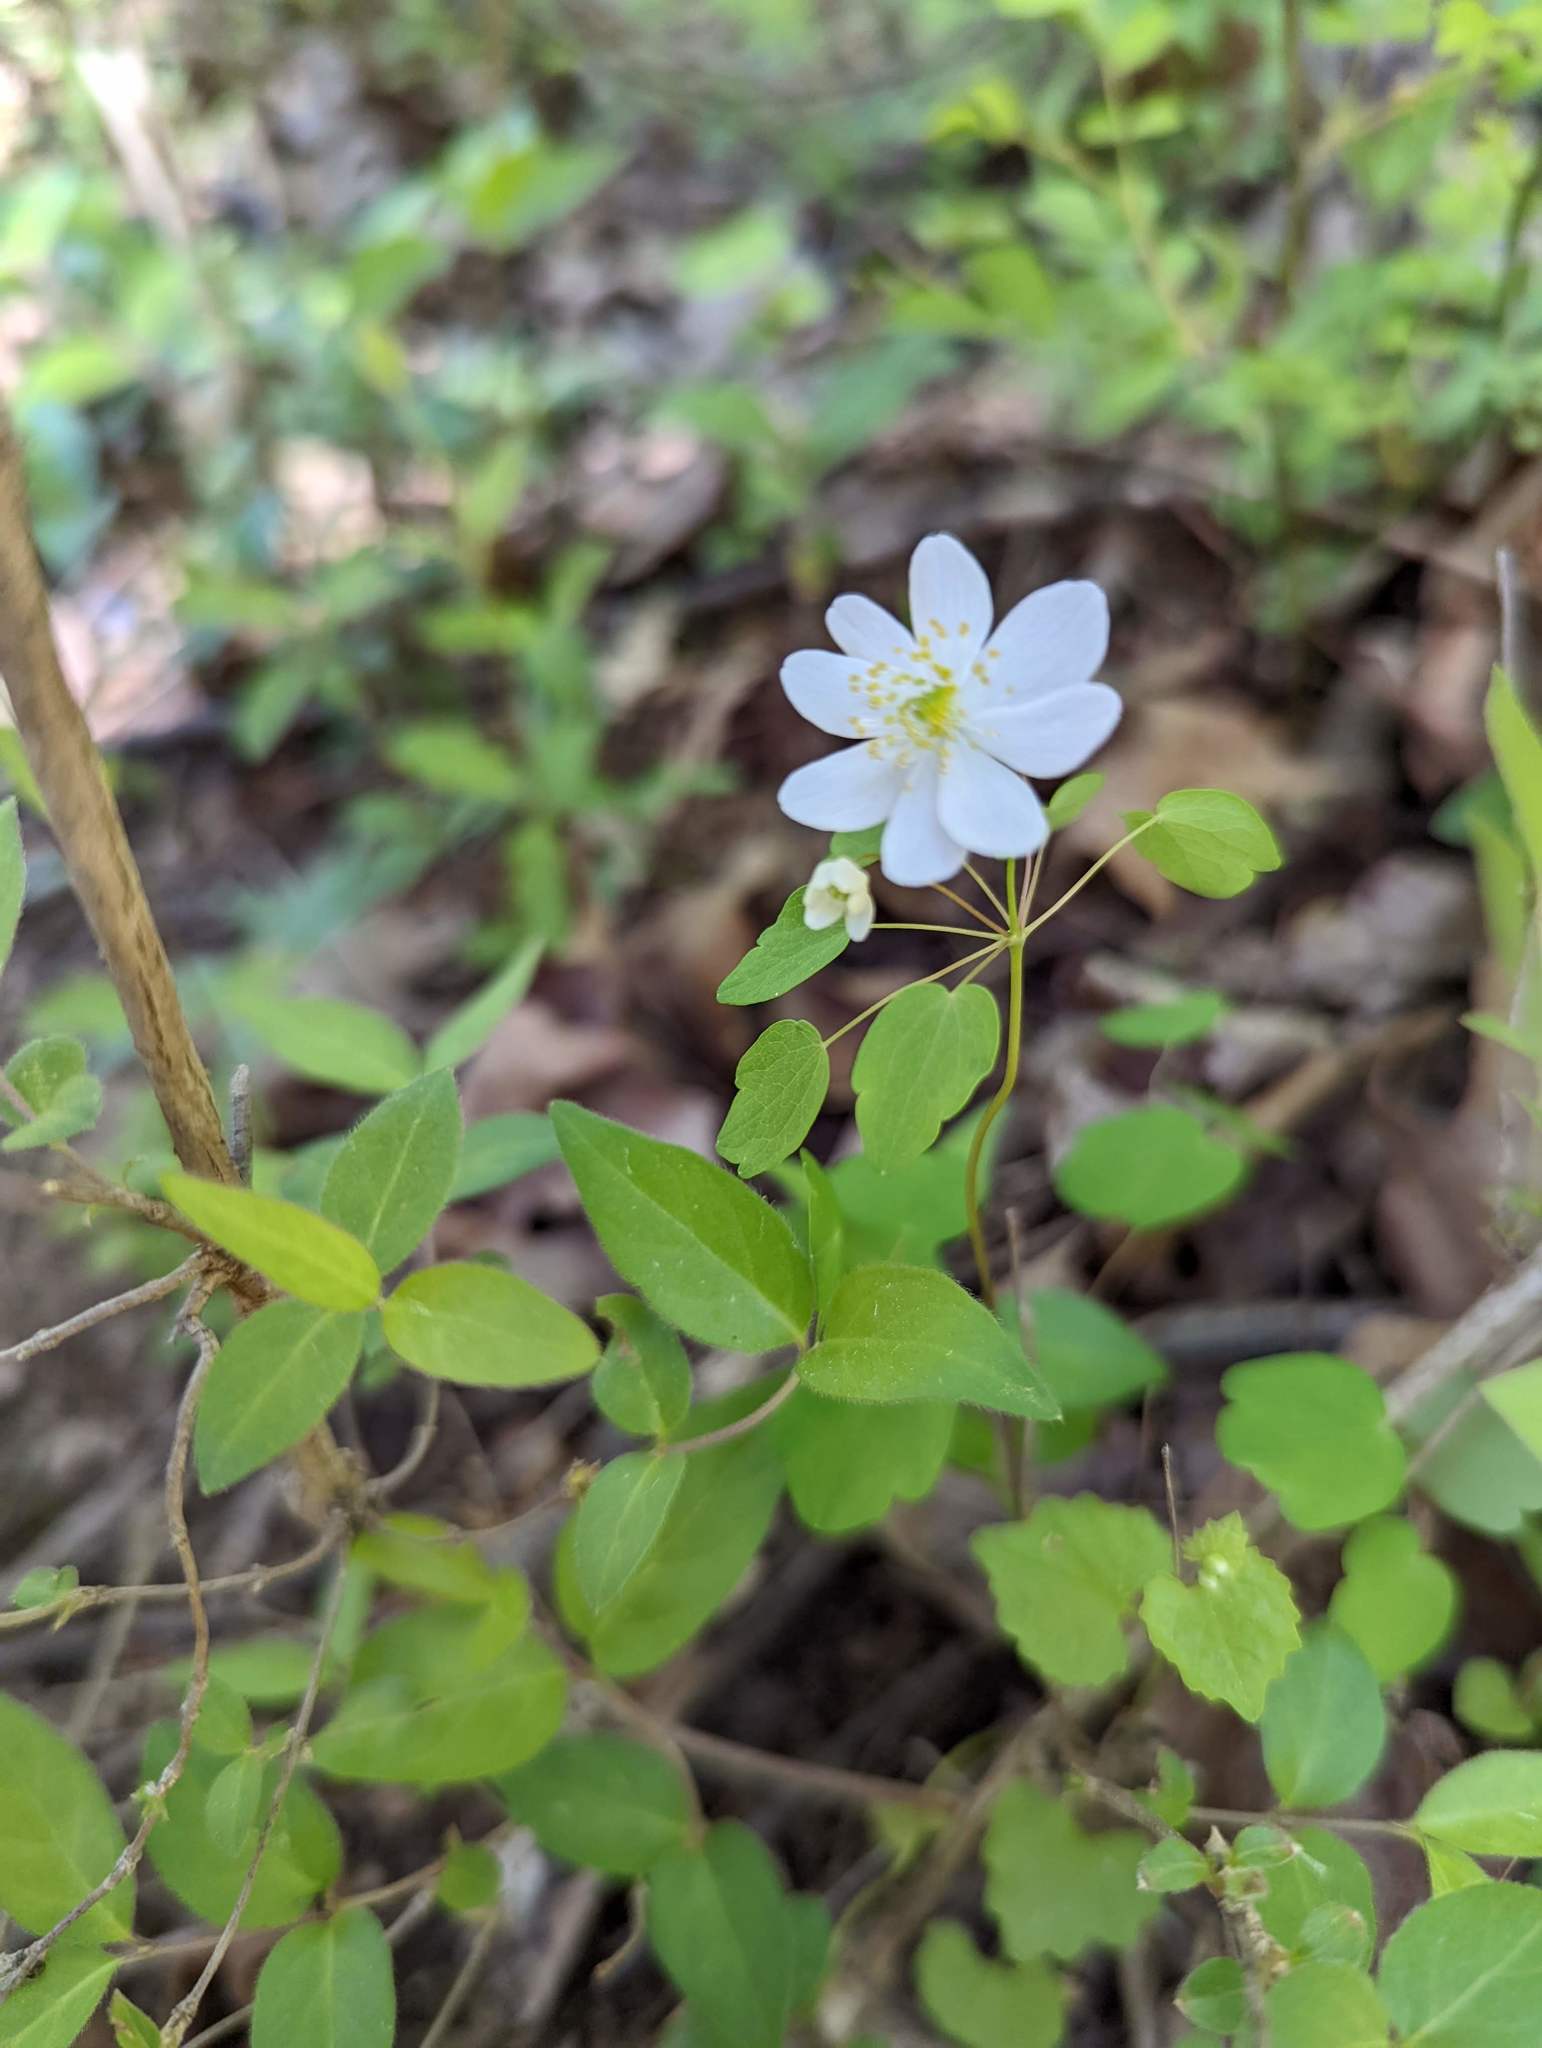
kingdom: Plantae
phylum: Tracheophyta
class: Magnoliopsida
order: Ranunculales
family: Ranunculaceae
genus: Thalictrum
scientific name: Thalictrum thalictroides
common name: Rue-anemone
